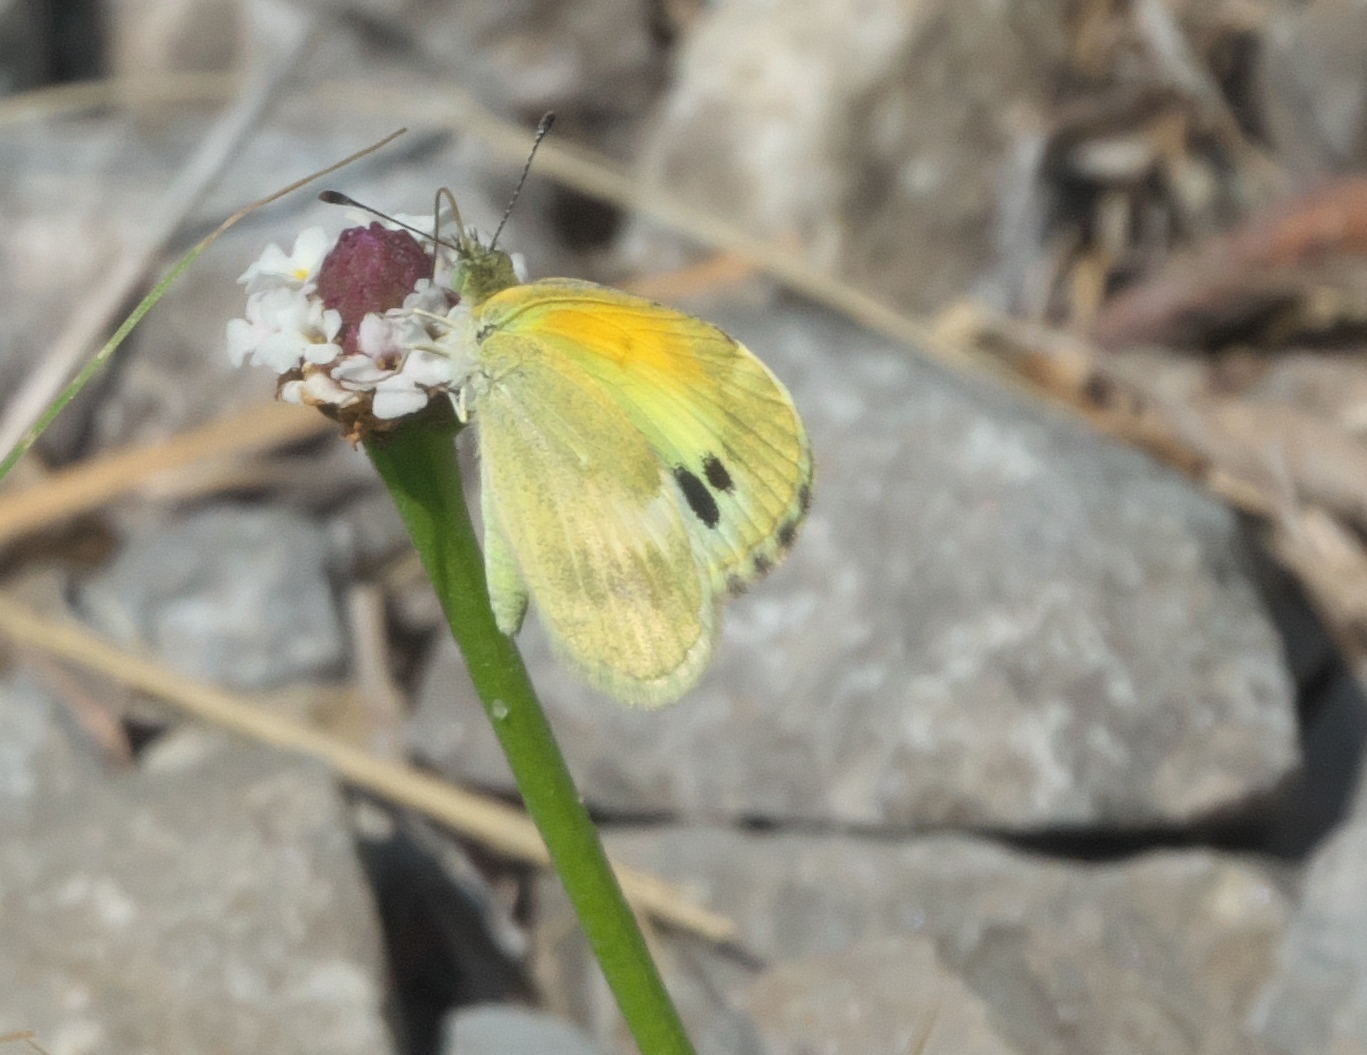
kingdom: Animalia
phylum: Arthropoda
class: Insecta
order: Lepidoptera
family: Pieridae
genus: Nathalis
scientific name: Nathalis iole
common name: Dainty sulphur
